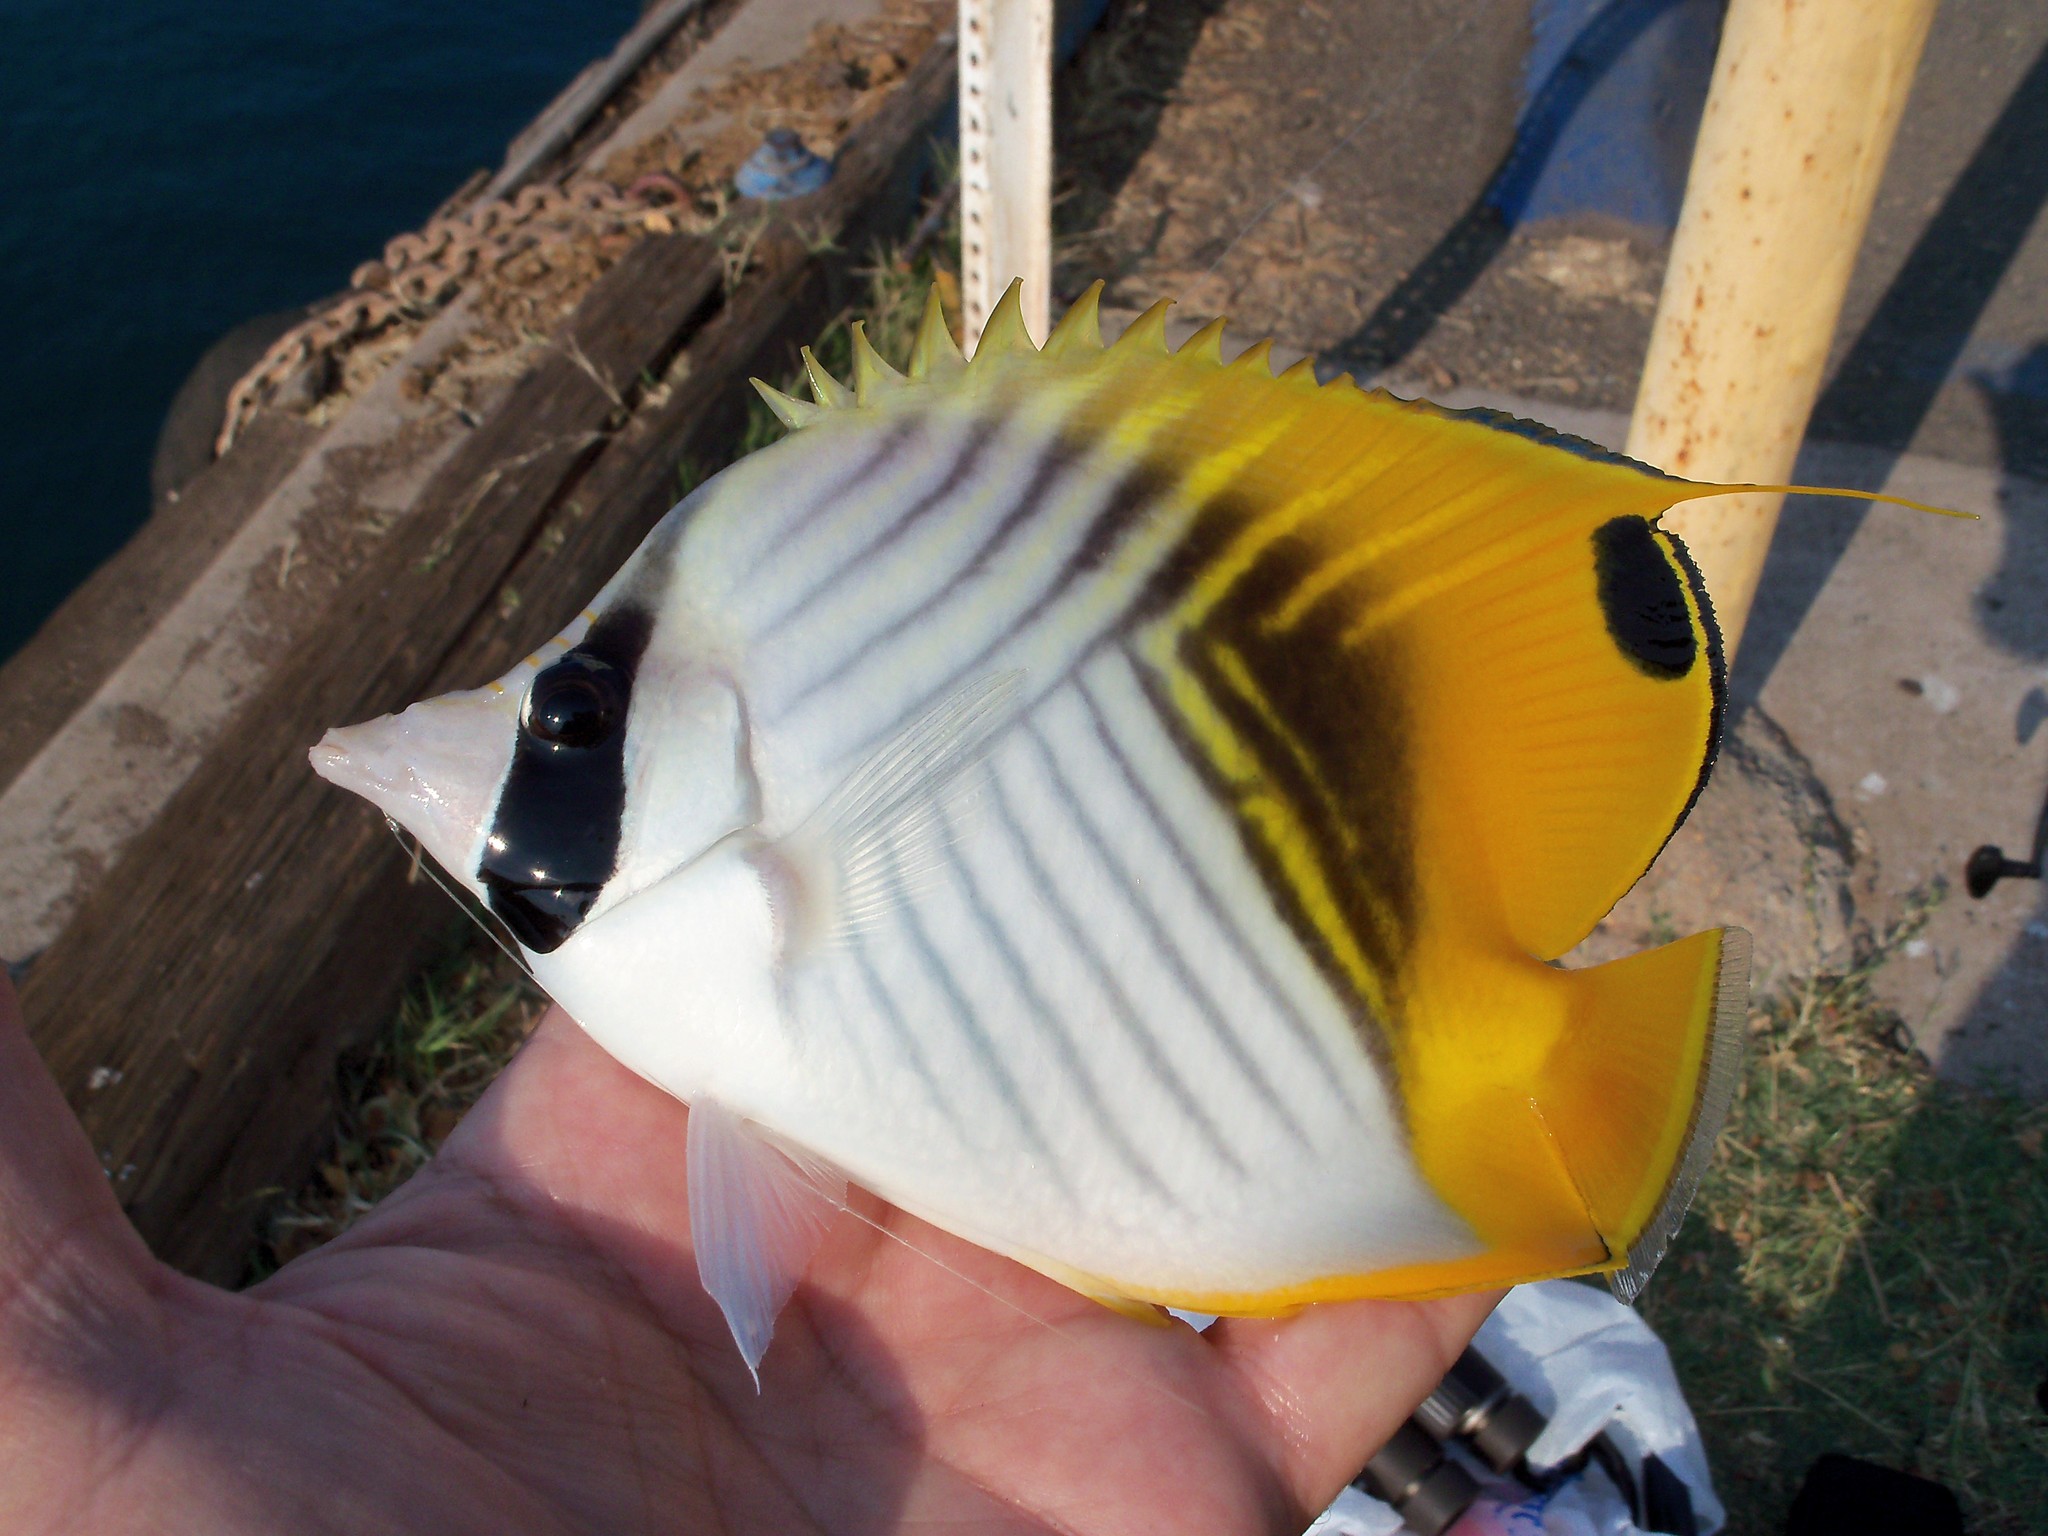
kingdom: Animalia
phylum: Chordata
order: Perciformes
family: Chaetodontidae
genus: Chaetodon
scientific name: Chaetodon auriga
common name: Threadfin butterflyfish
